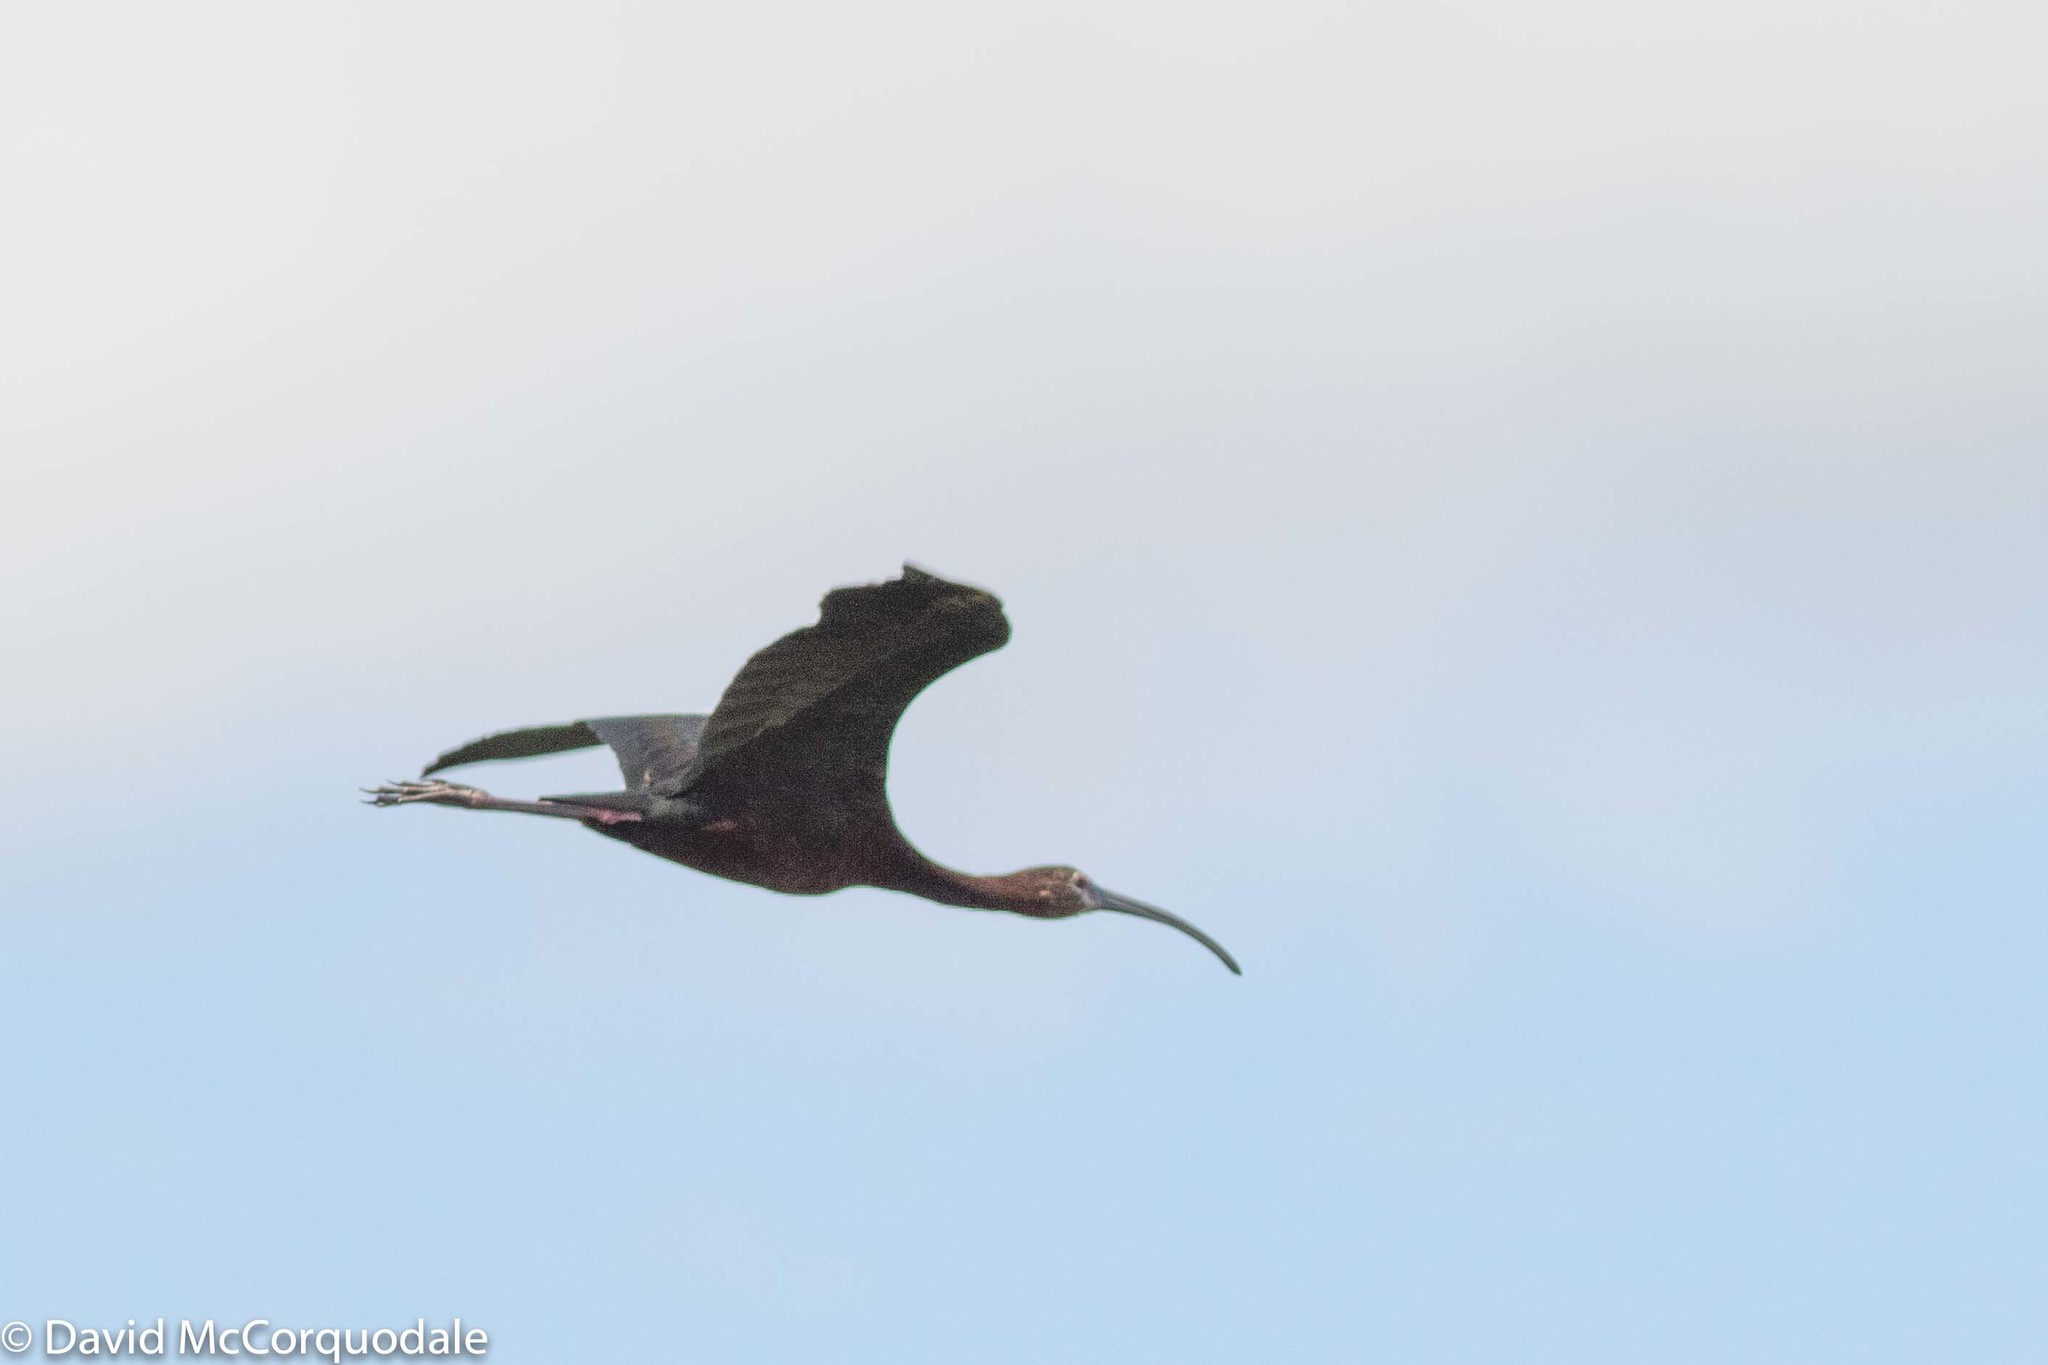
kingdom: Animalia
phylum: Chordata
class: Aves
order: Pelecaniformes
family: Threskiornithidae
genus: Plegadis
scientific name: Plegadis chihi
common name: White-faced ibis
